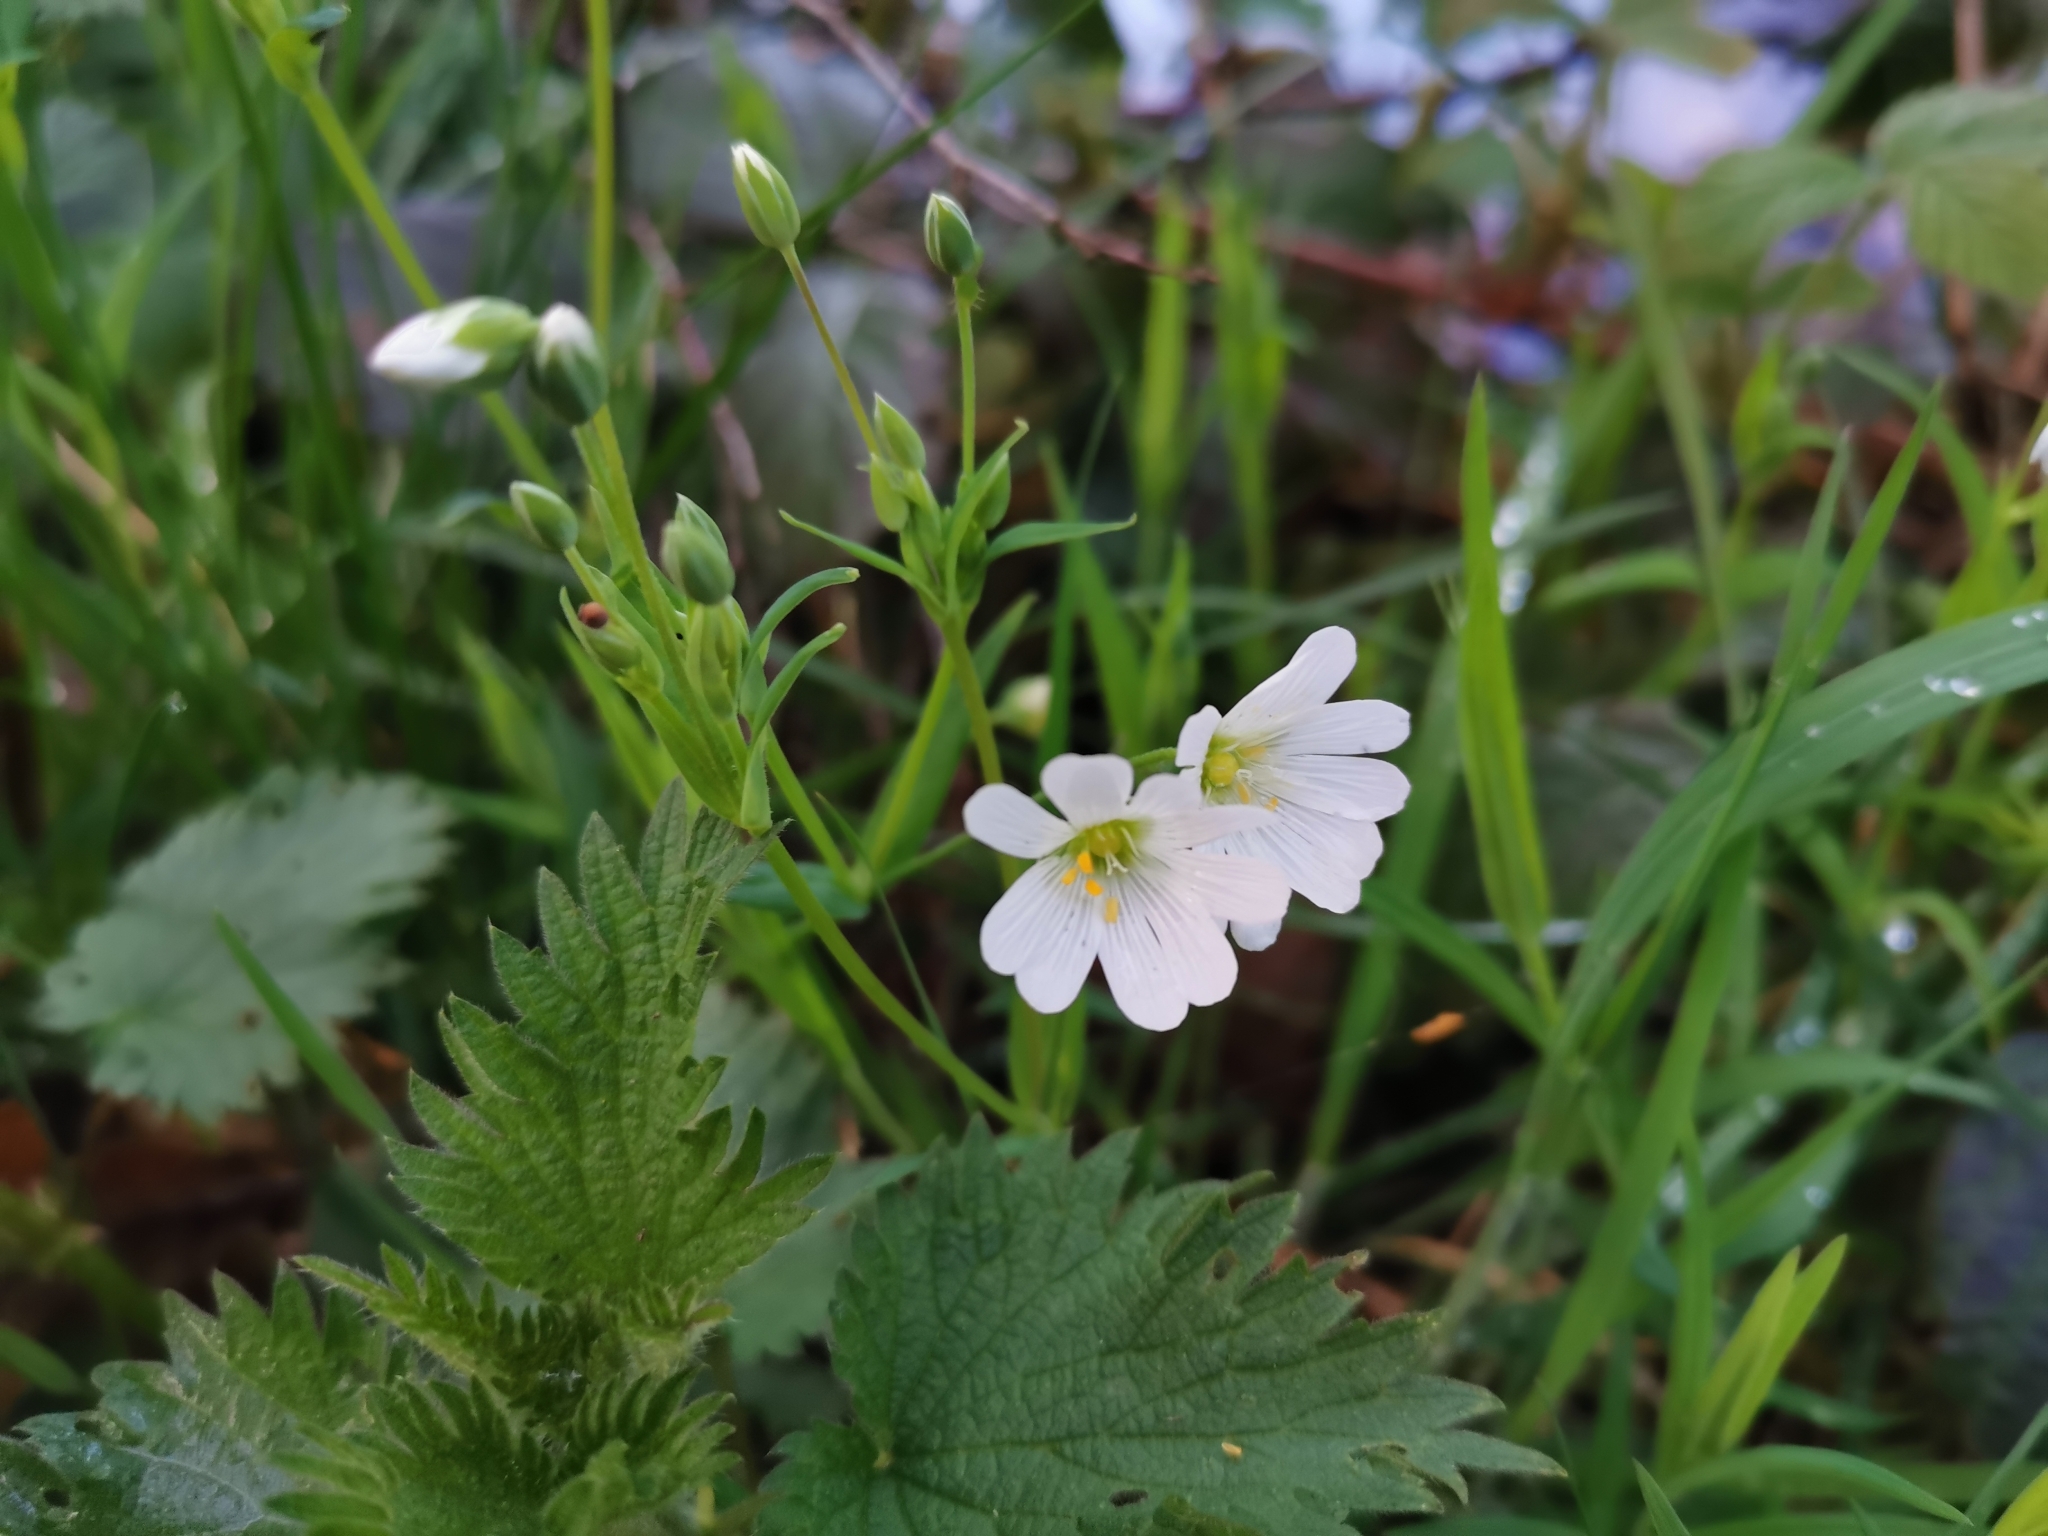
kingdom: Plantae
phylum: Tracheophyta
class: Magnoliopsida
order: Caryophyllales
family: Caryophyllaceae
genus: Rabelera
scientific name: Rabelera holostea
